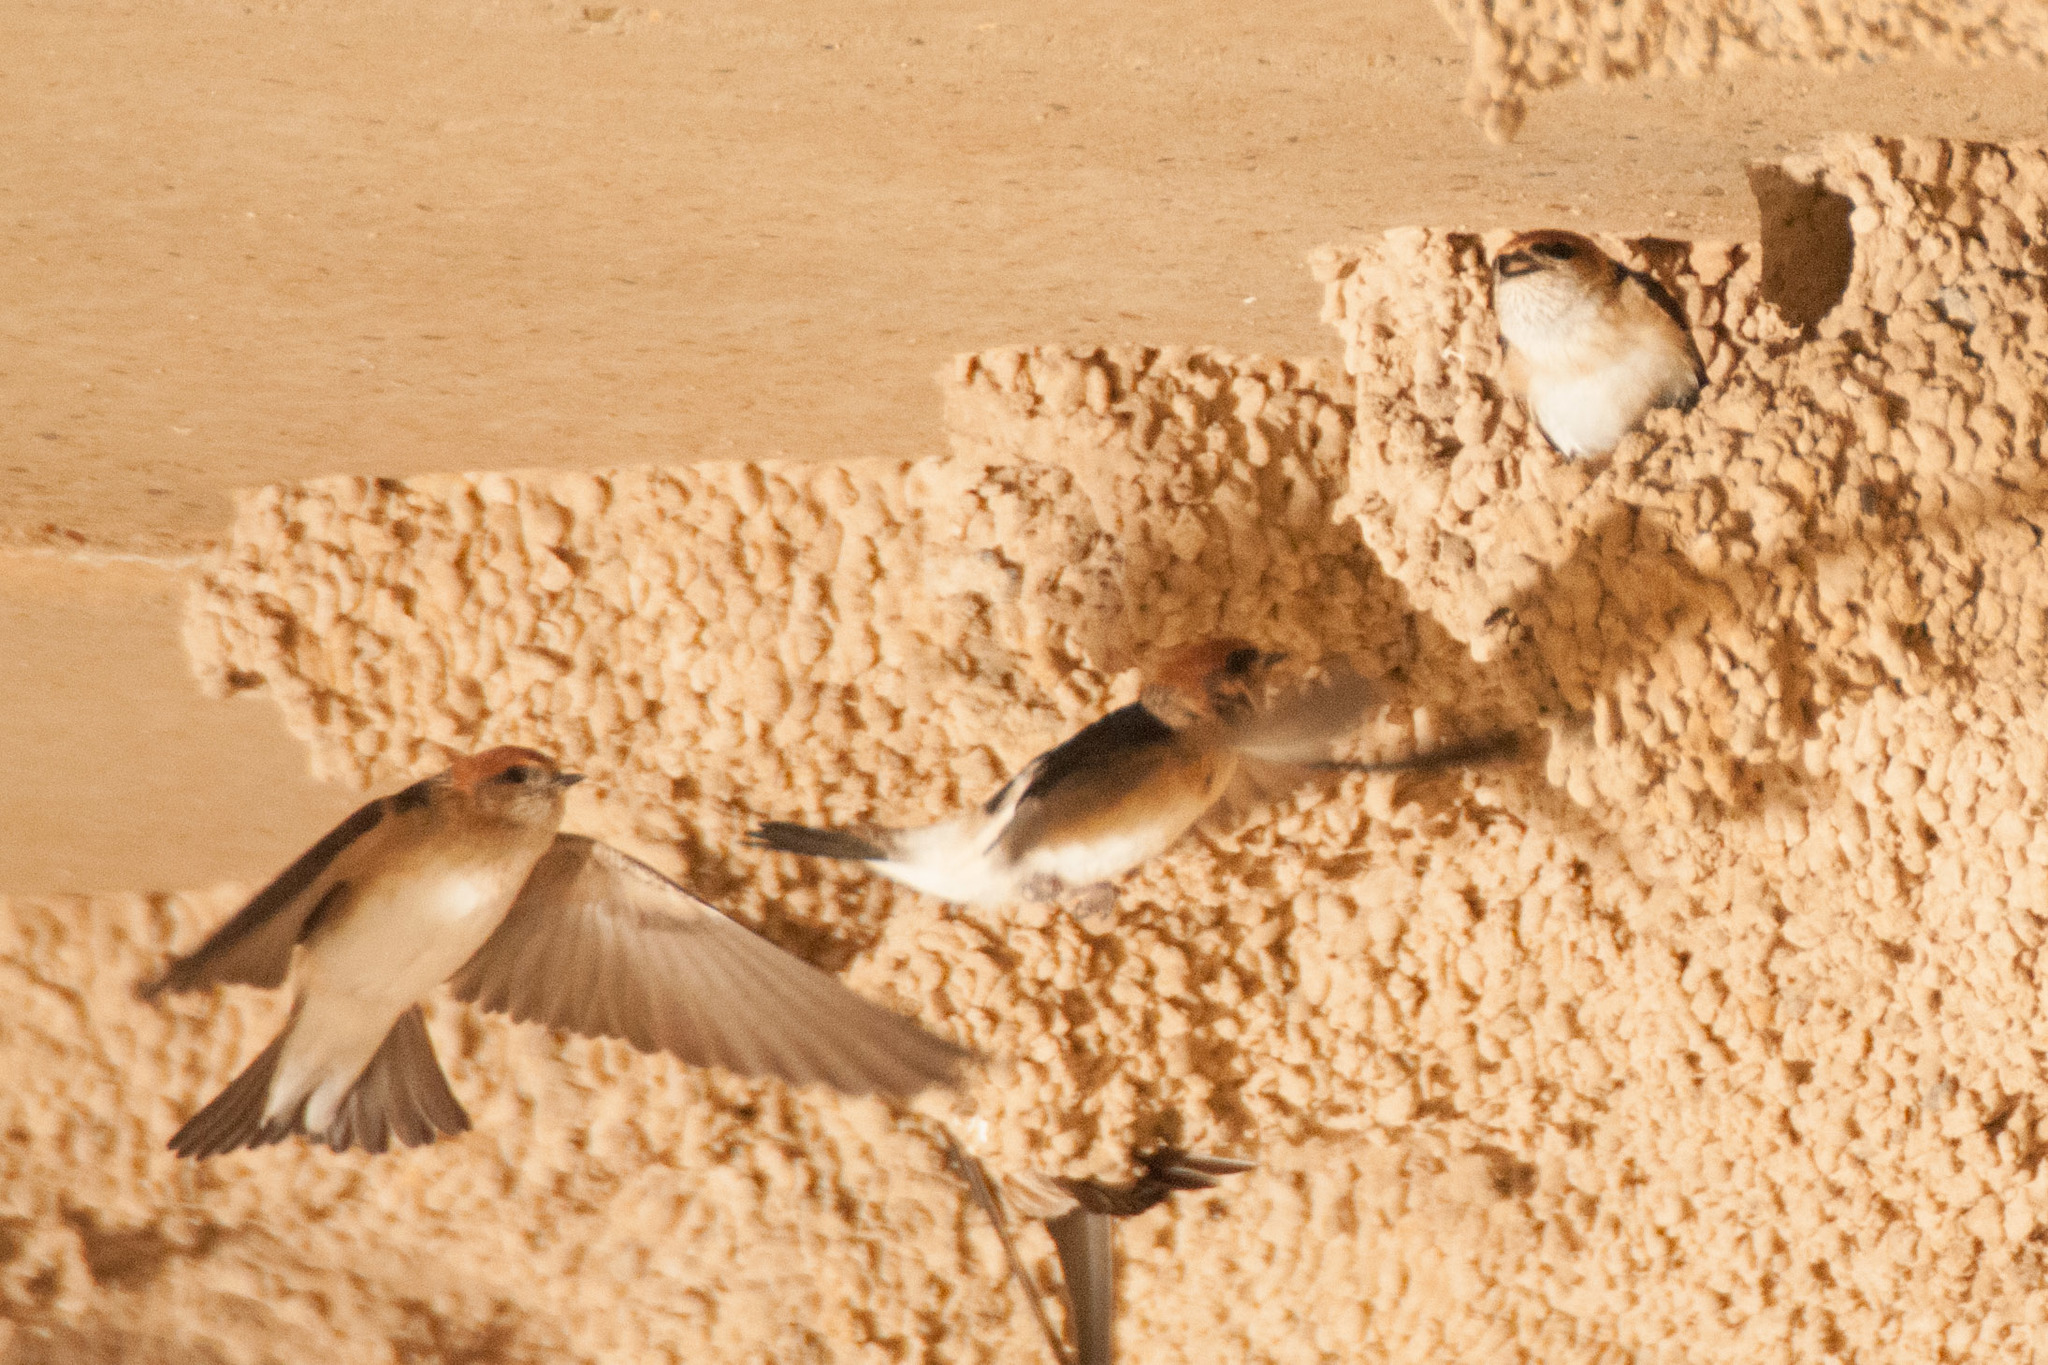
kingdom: Animalia
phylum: Chordata
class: Aves
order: Passeriformes
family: Hirundinidae
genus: Petrochelidon
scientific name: Petrochelidon ariel
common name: Fairy martin
